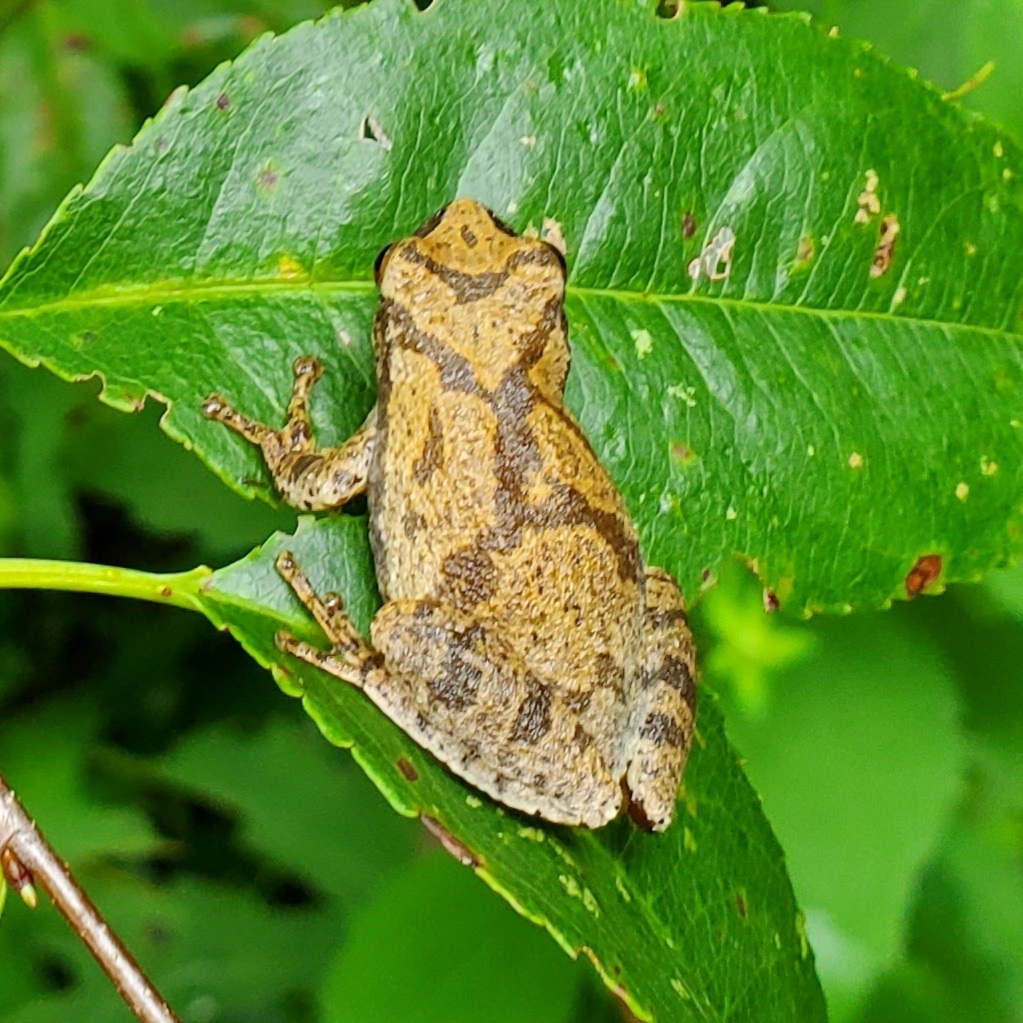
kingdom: Animalia
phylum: Chordata
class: Amphibia
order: Anura
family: Hylidae
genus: Pseudacris
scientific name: Pseudacris crucifer
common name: Spring peeper
